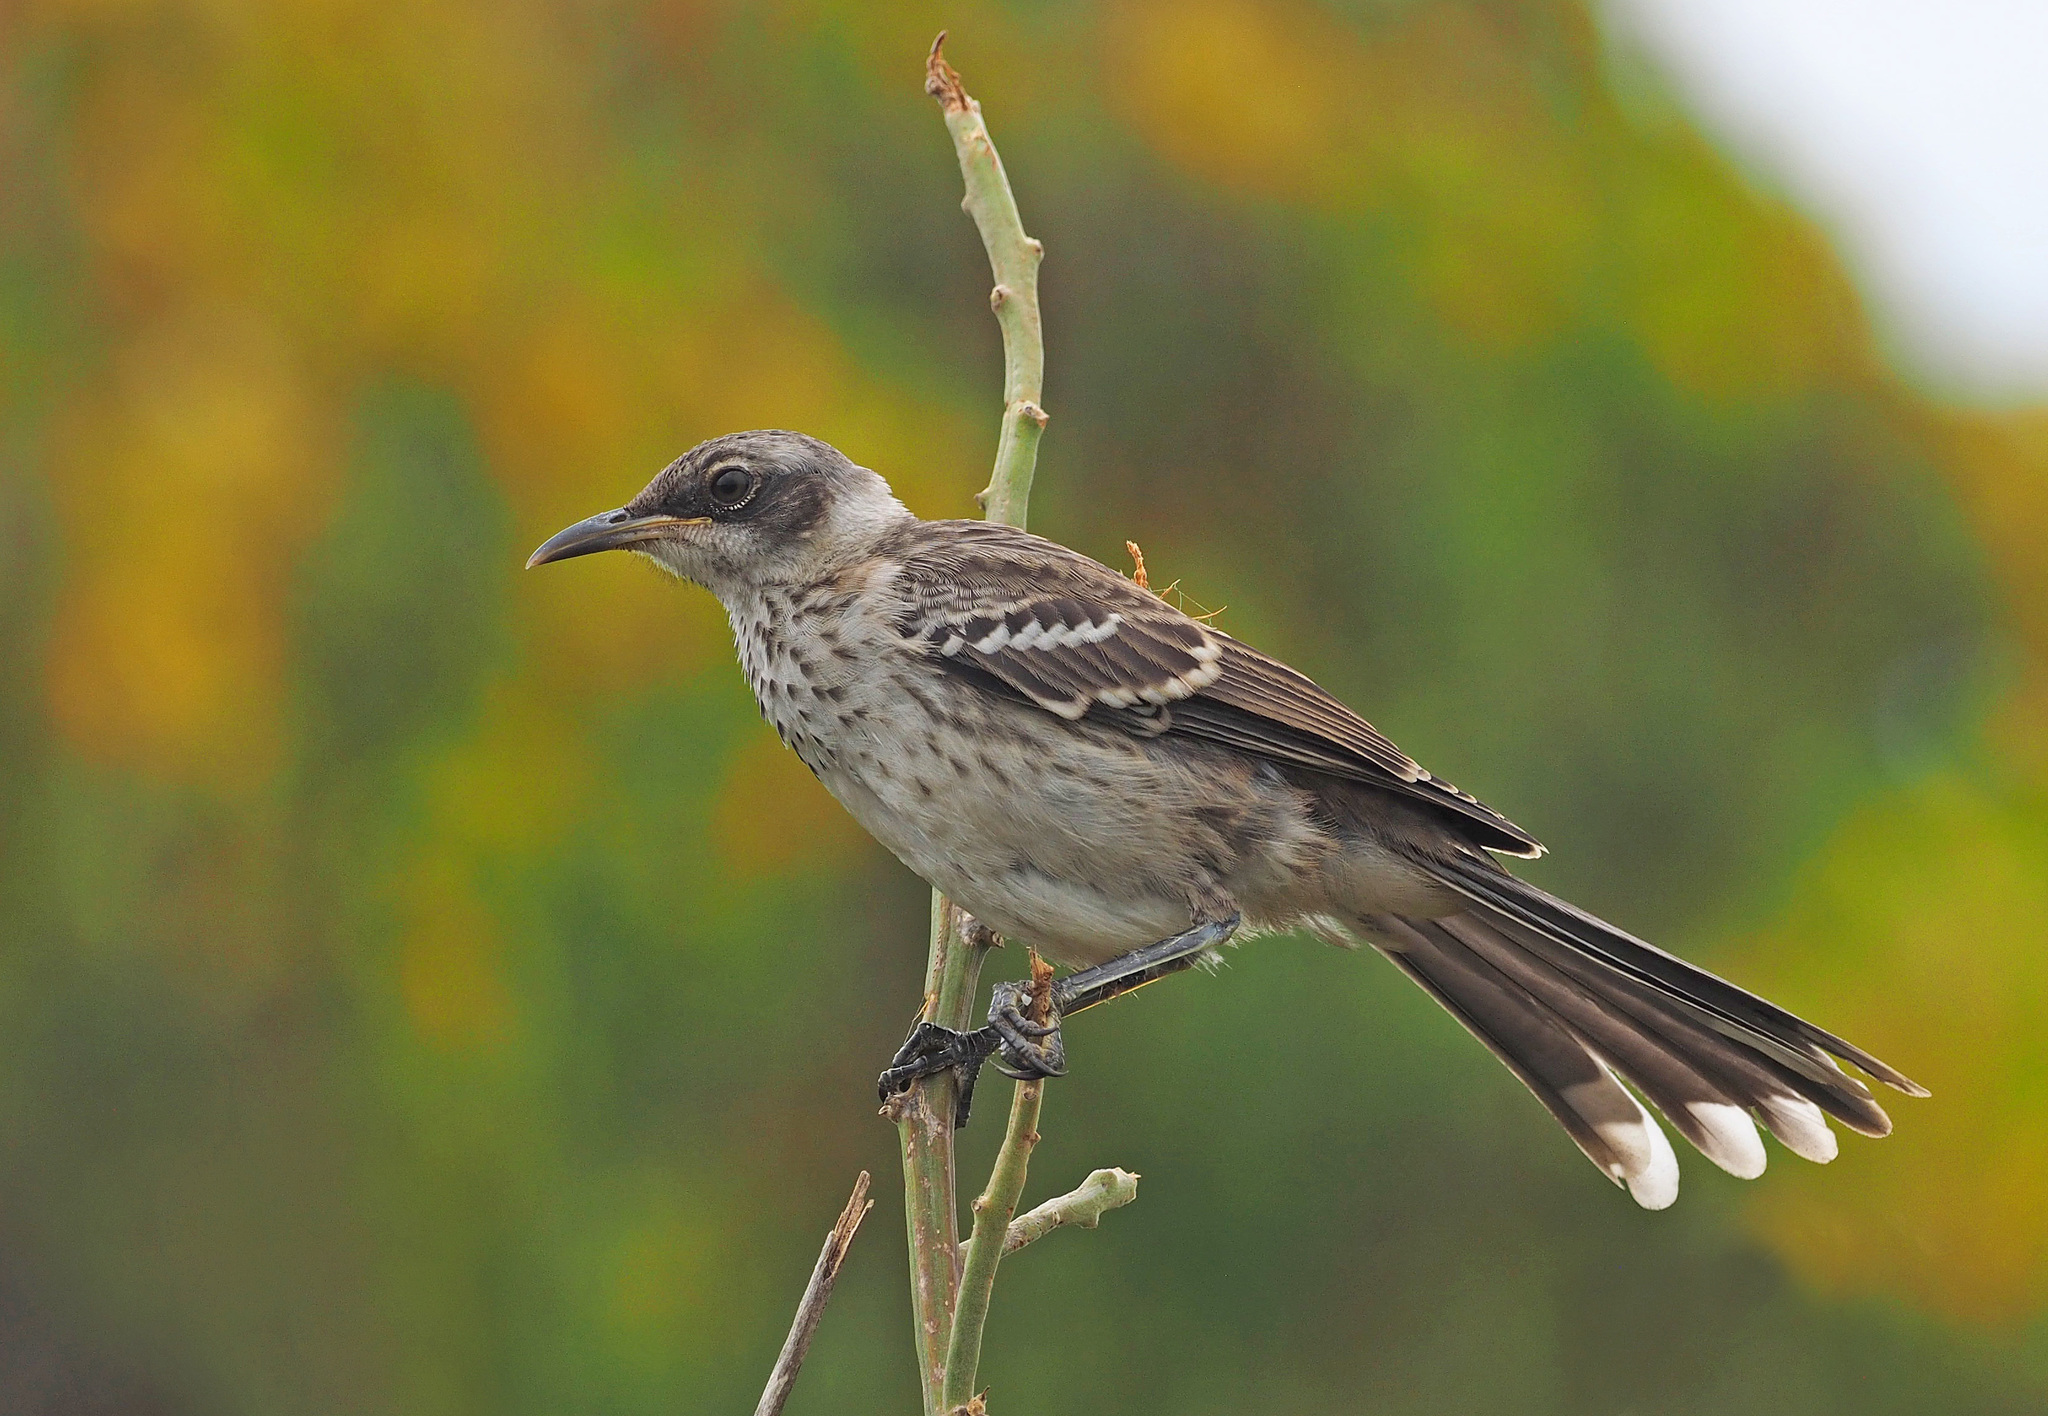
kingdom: Animalia
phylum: Chordata
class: Aves
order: Passeriformes
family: Mimidae
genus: Mimus
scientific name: Mimus parvulus
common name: Galapagos mockingbird
